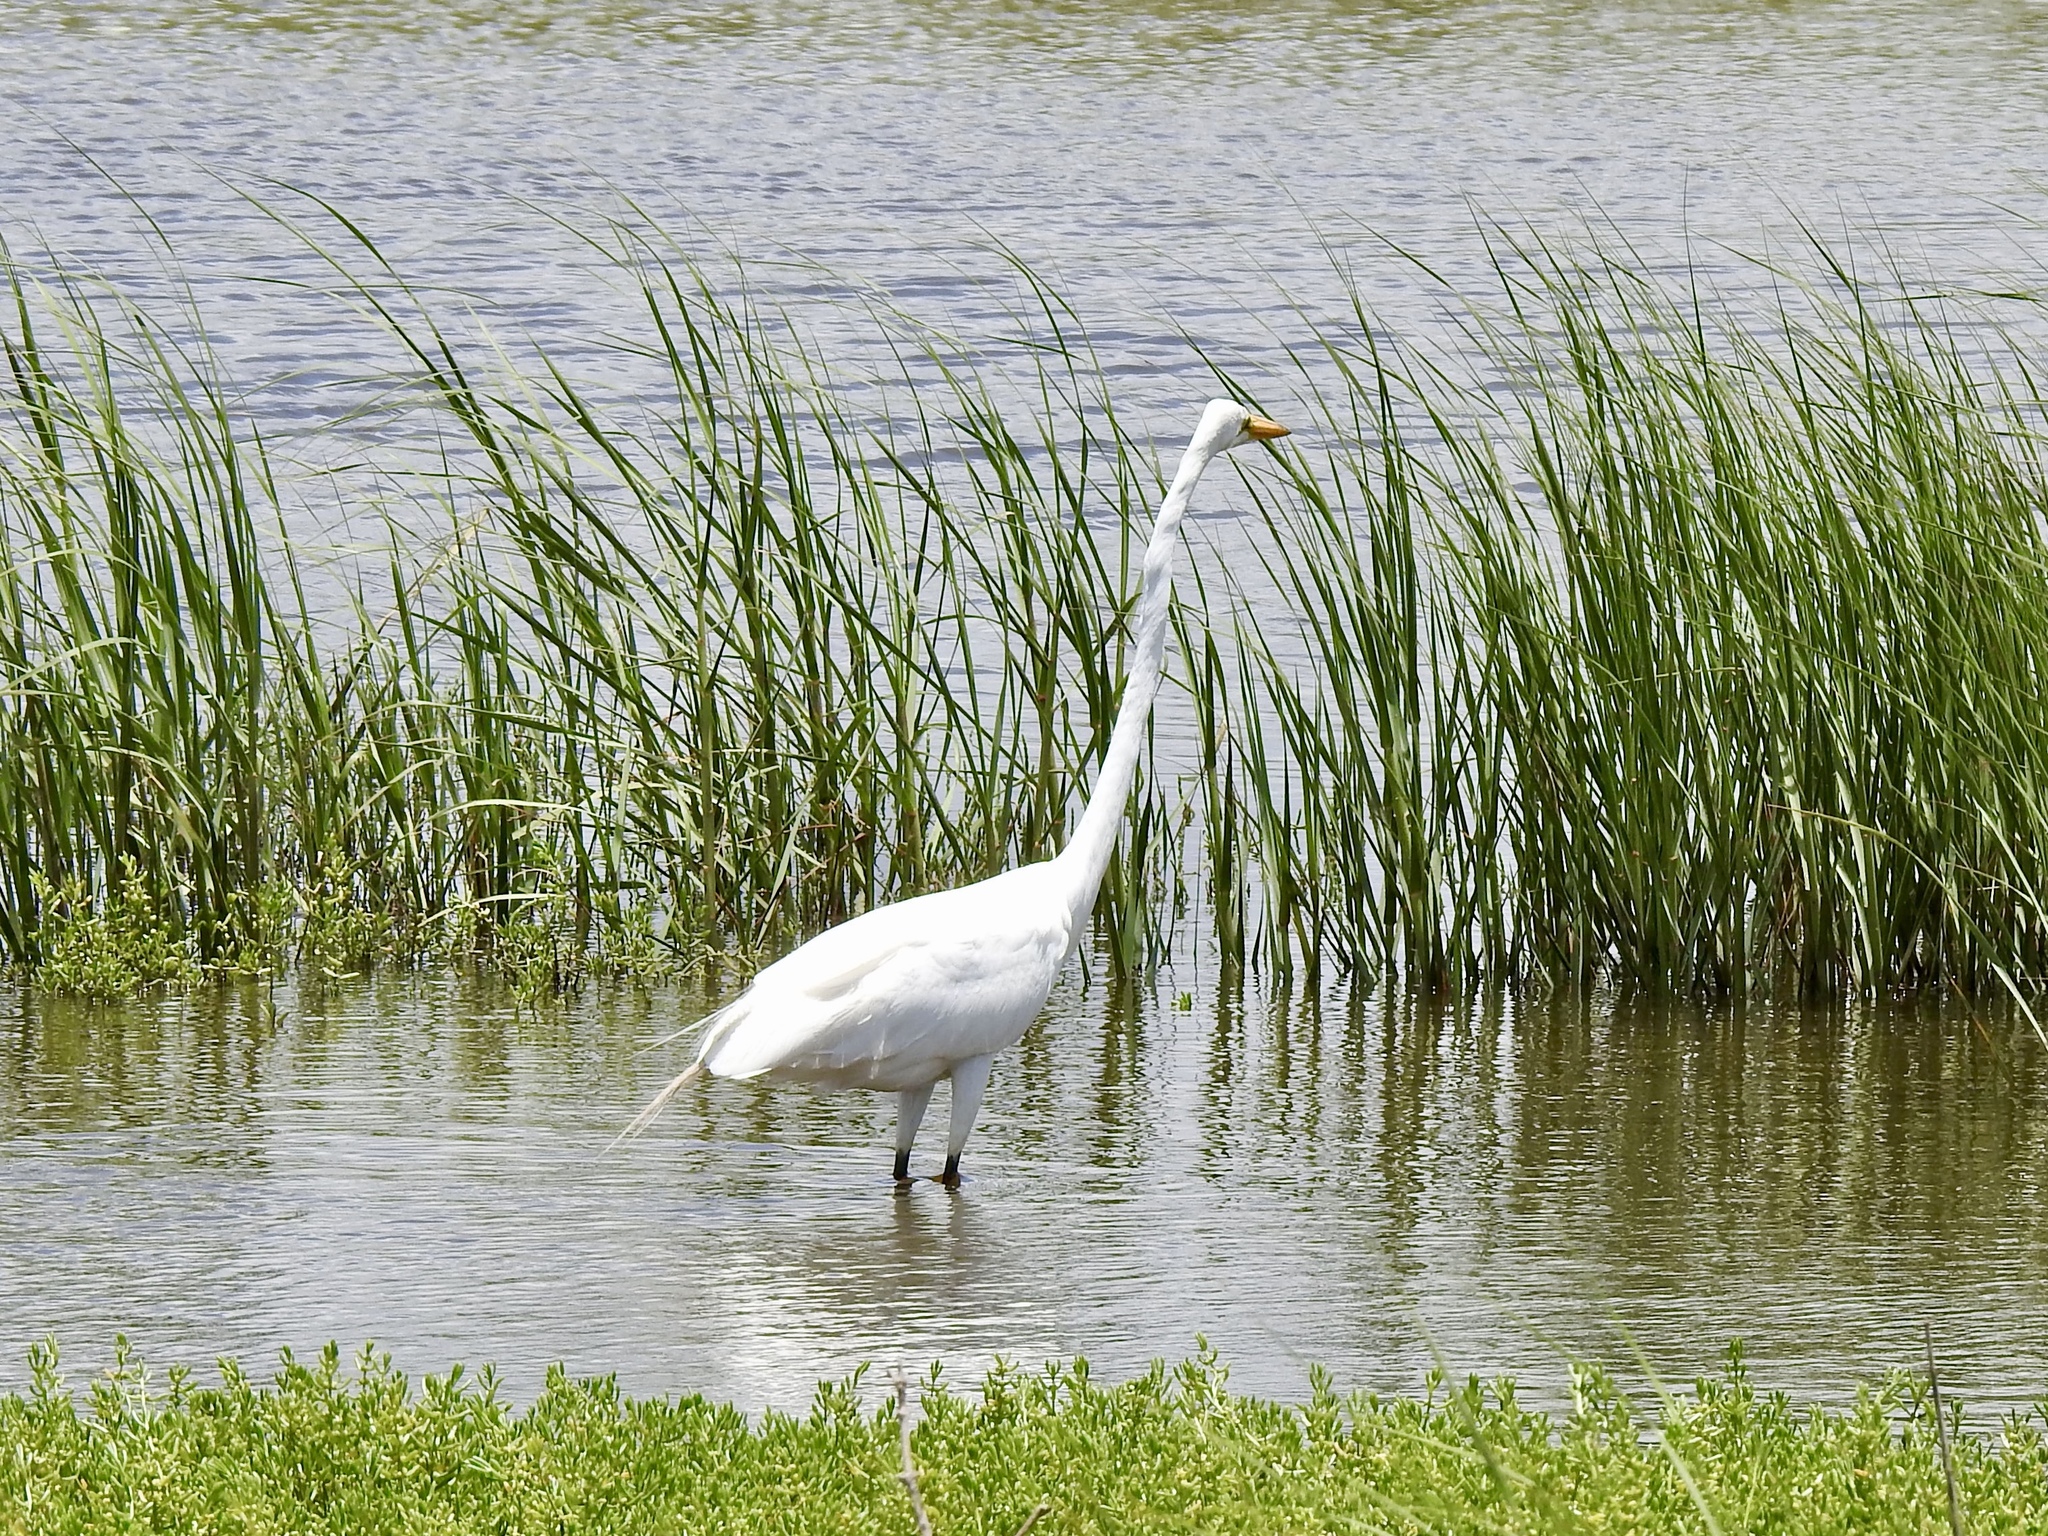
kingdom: Animalia
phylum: Chordata
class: Aves
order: Pelecaniformes
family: Ardeidae
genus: Ardea
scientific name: Ardea alba
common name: Great egret
